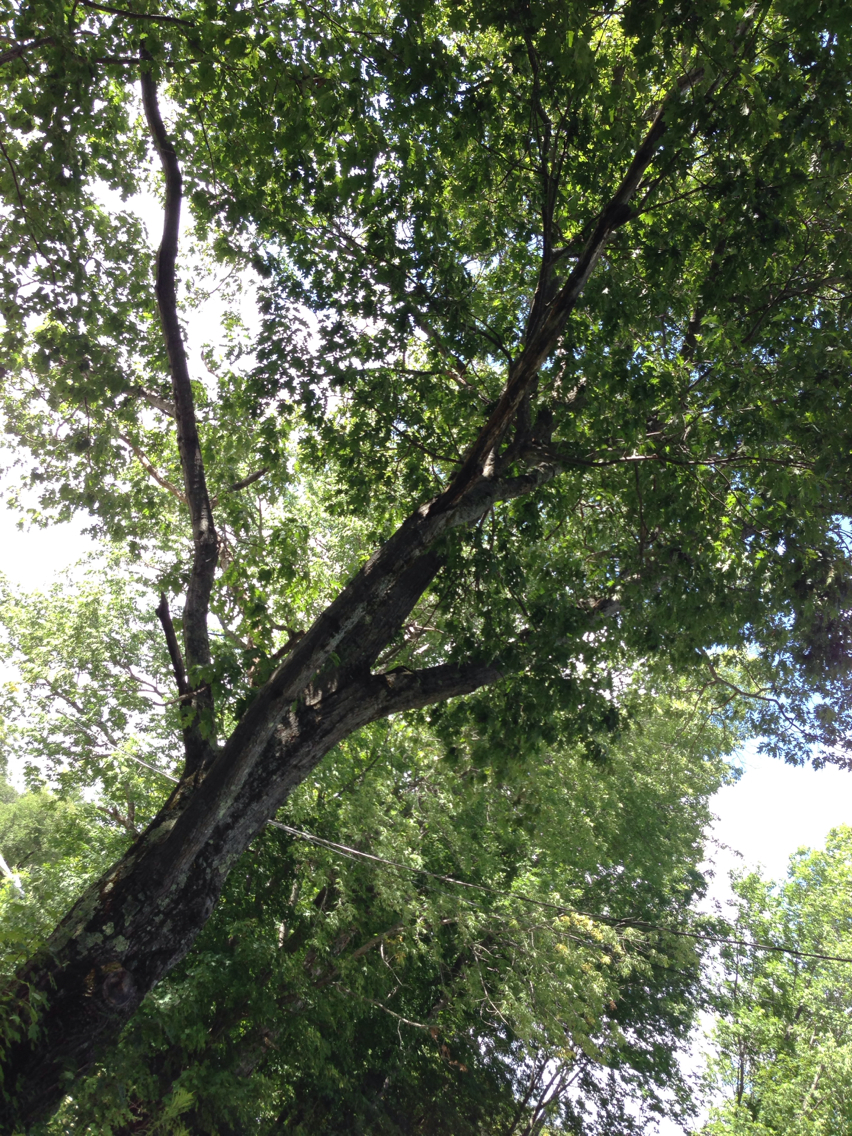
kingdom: Plantae
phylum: Tracheophyta
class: Magnoliopsida
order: Fagales
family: Fagaceae
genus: Quercus
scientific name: Quercus rubra
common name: Red oak
